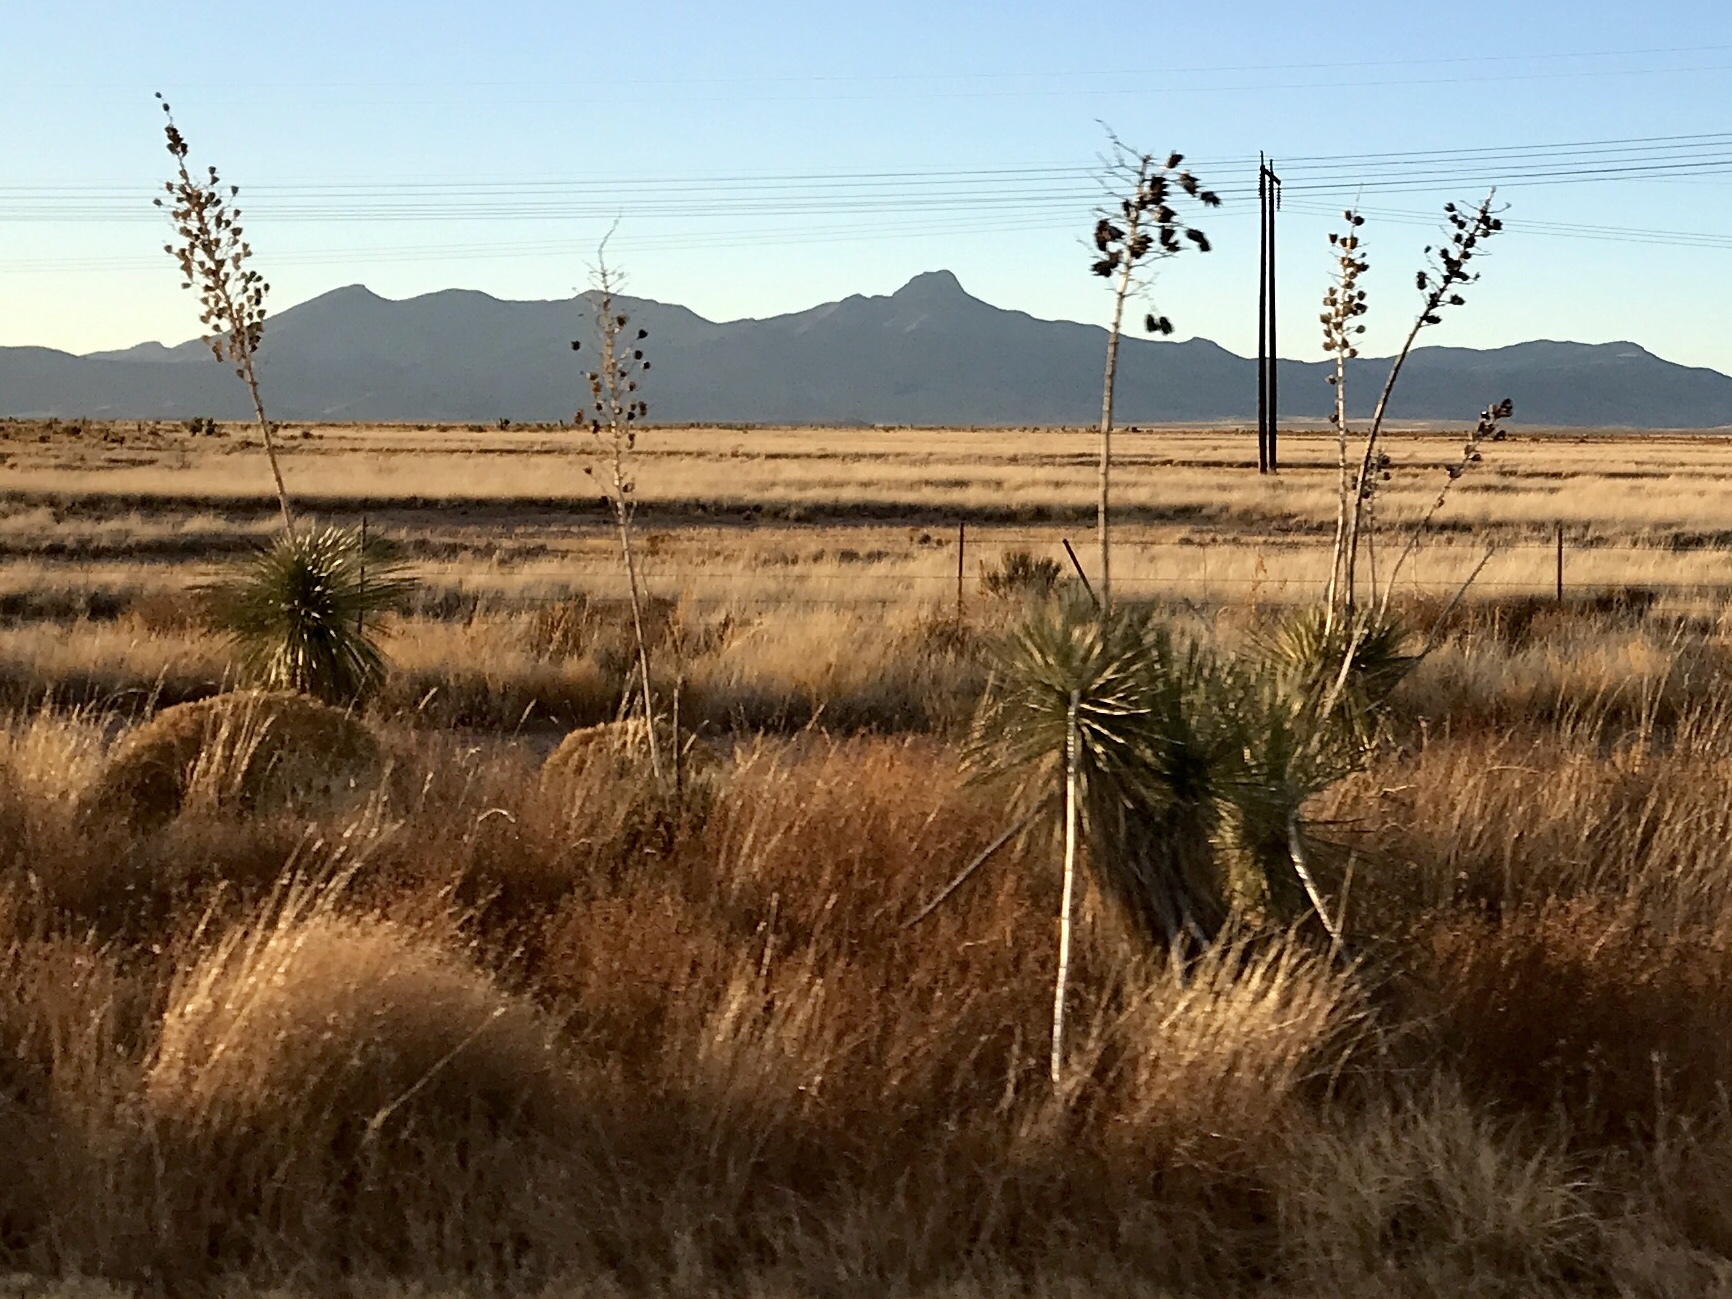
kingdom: Plantae
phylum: Tracheophyta
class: Liliopsida
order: Asparagales
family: Asparagaceae
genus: Yucca
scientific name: Yucca elata
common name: Palmella
